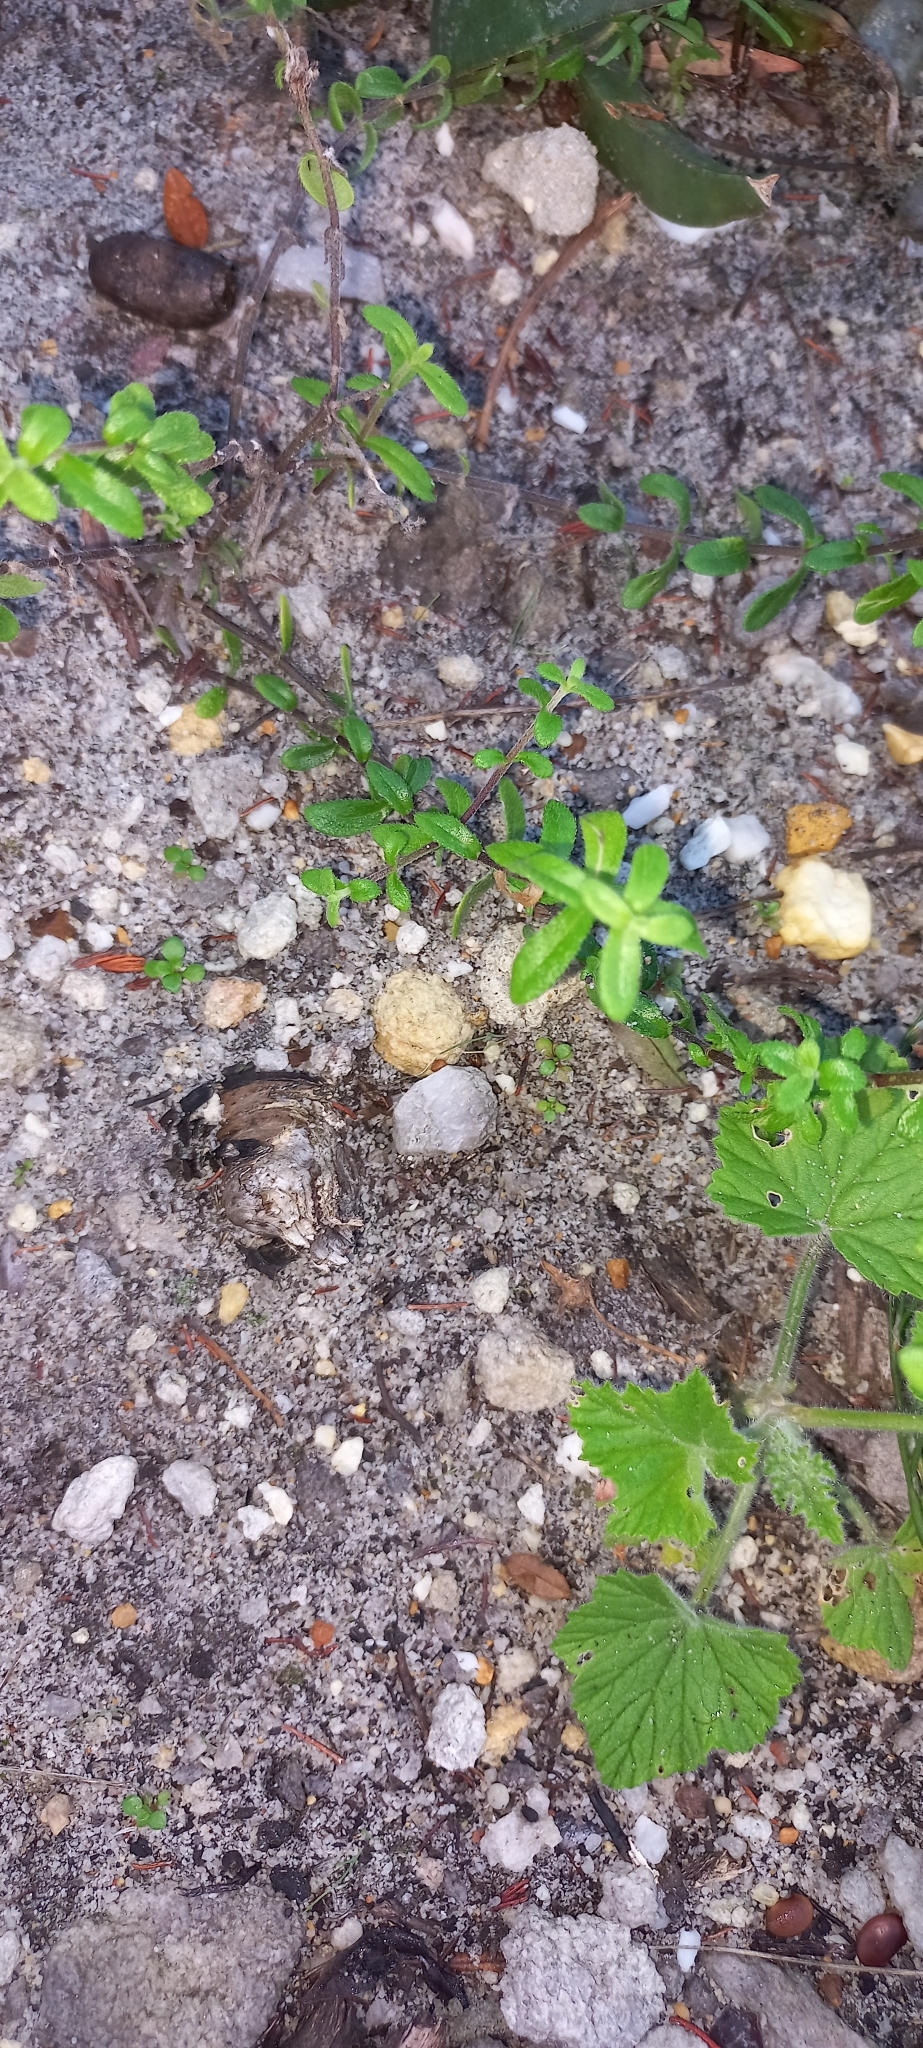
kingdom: Plantae
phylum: Tracheophyta
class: Magnoliopsida
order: Asterales
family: Asteraceae
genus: Felicia
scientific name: Felicia aethiopica
